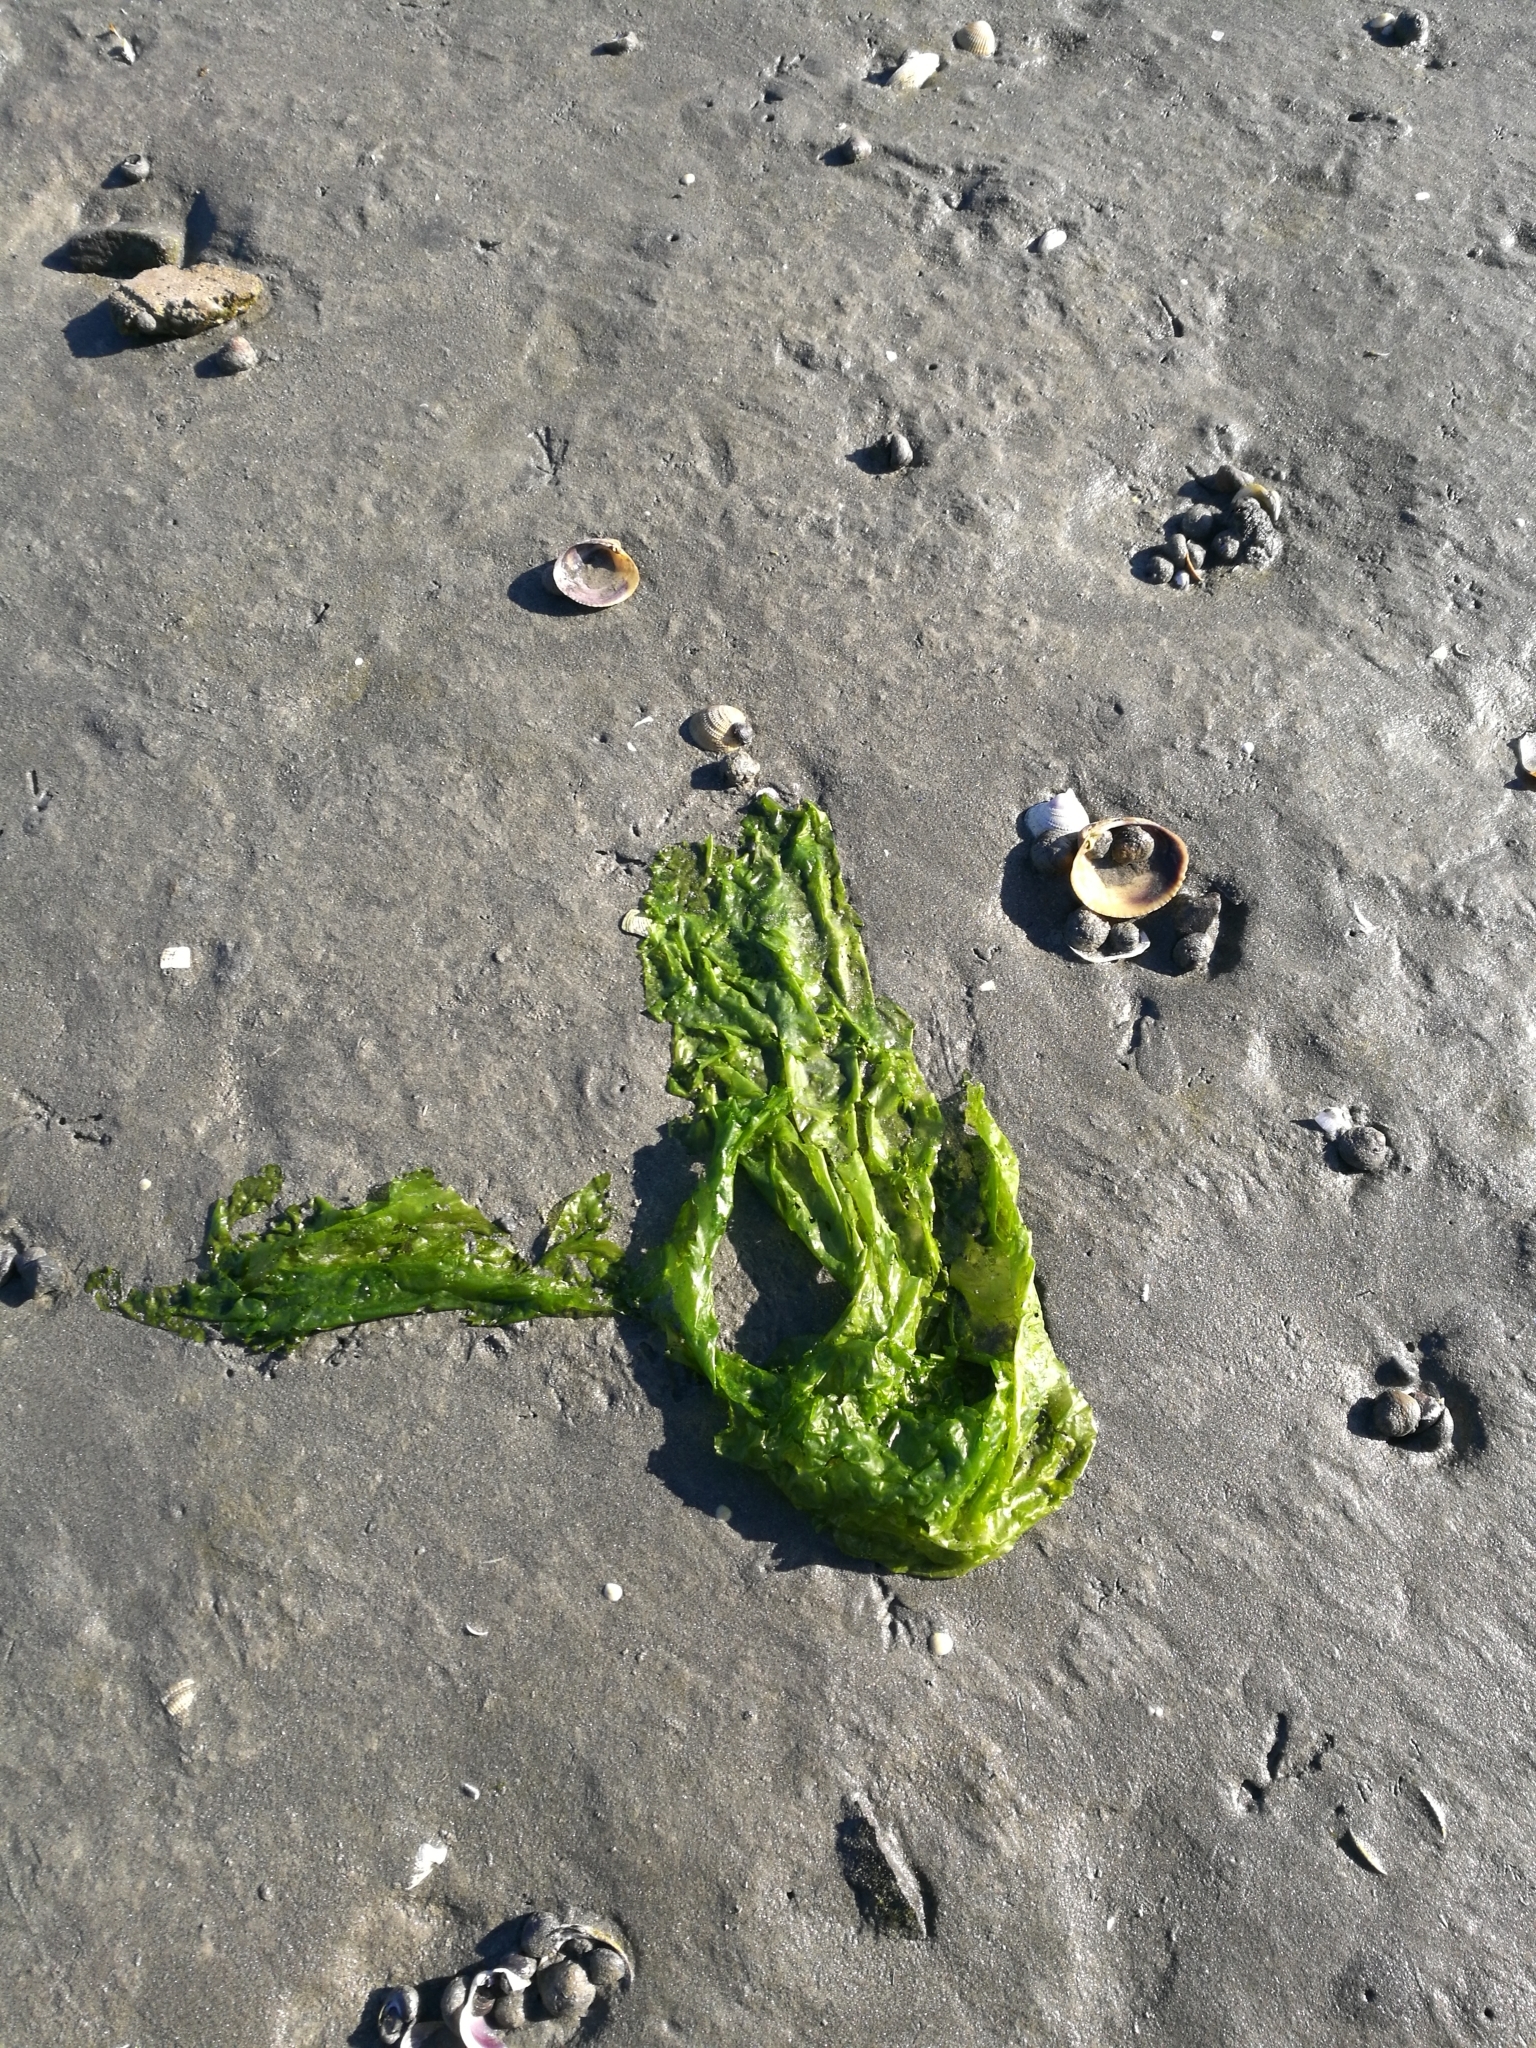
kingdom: Plantae
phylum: Chlorophyta
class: Ulvophyceae
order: Ulvales
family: Ulvaceae
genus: Ulva
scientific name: Ulva
